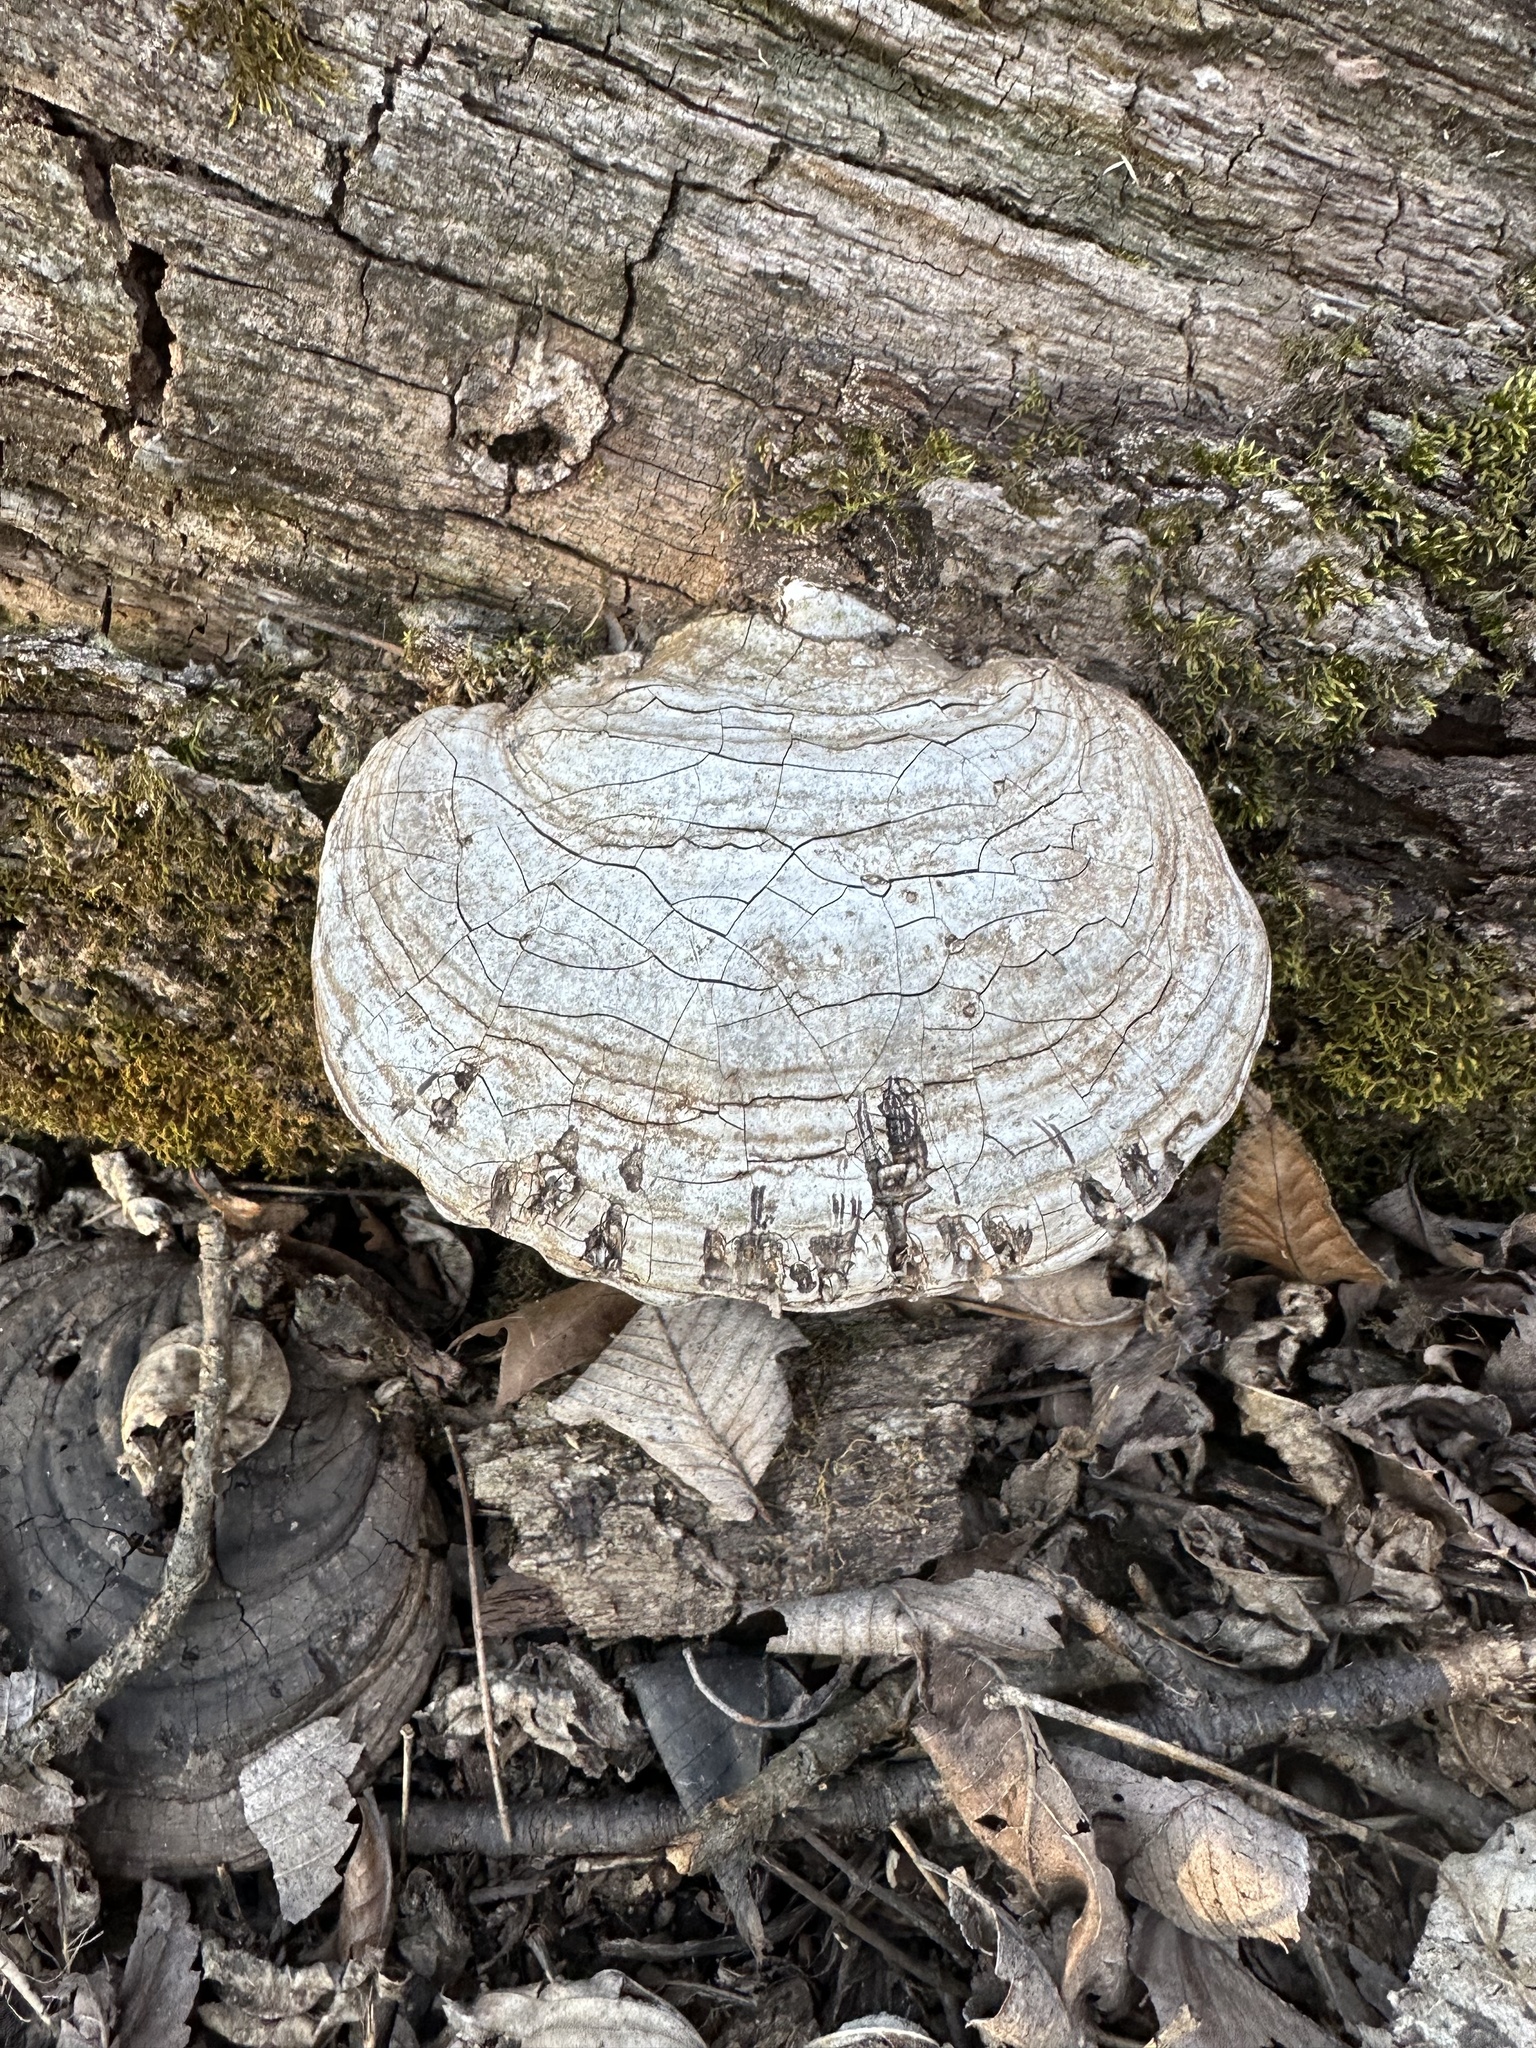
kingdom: Fungi
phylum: Basidiomycota
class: Agaricomycetes
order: Polyporales
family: Polyporaceae
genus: Ganoderma
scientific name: Ganoderma applanatum
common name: Artist's bracket
